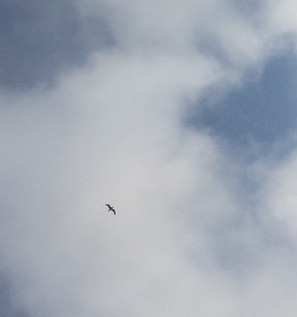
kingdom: Animalia
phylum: Chordata
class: Aves
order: Charadriiformes
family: Laridae
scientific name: Laridae
